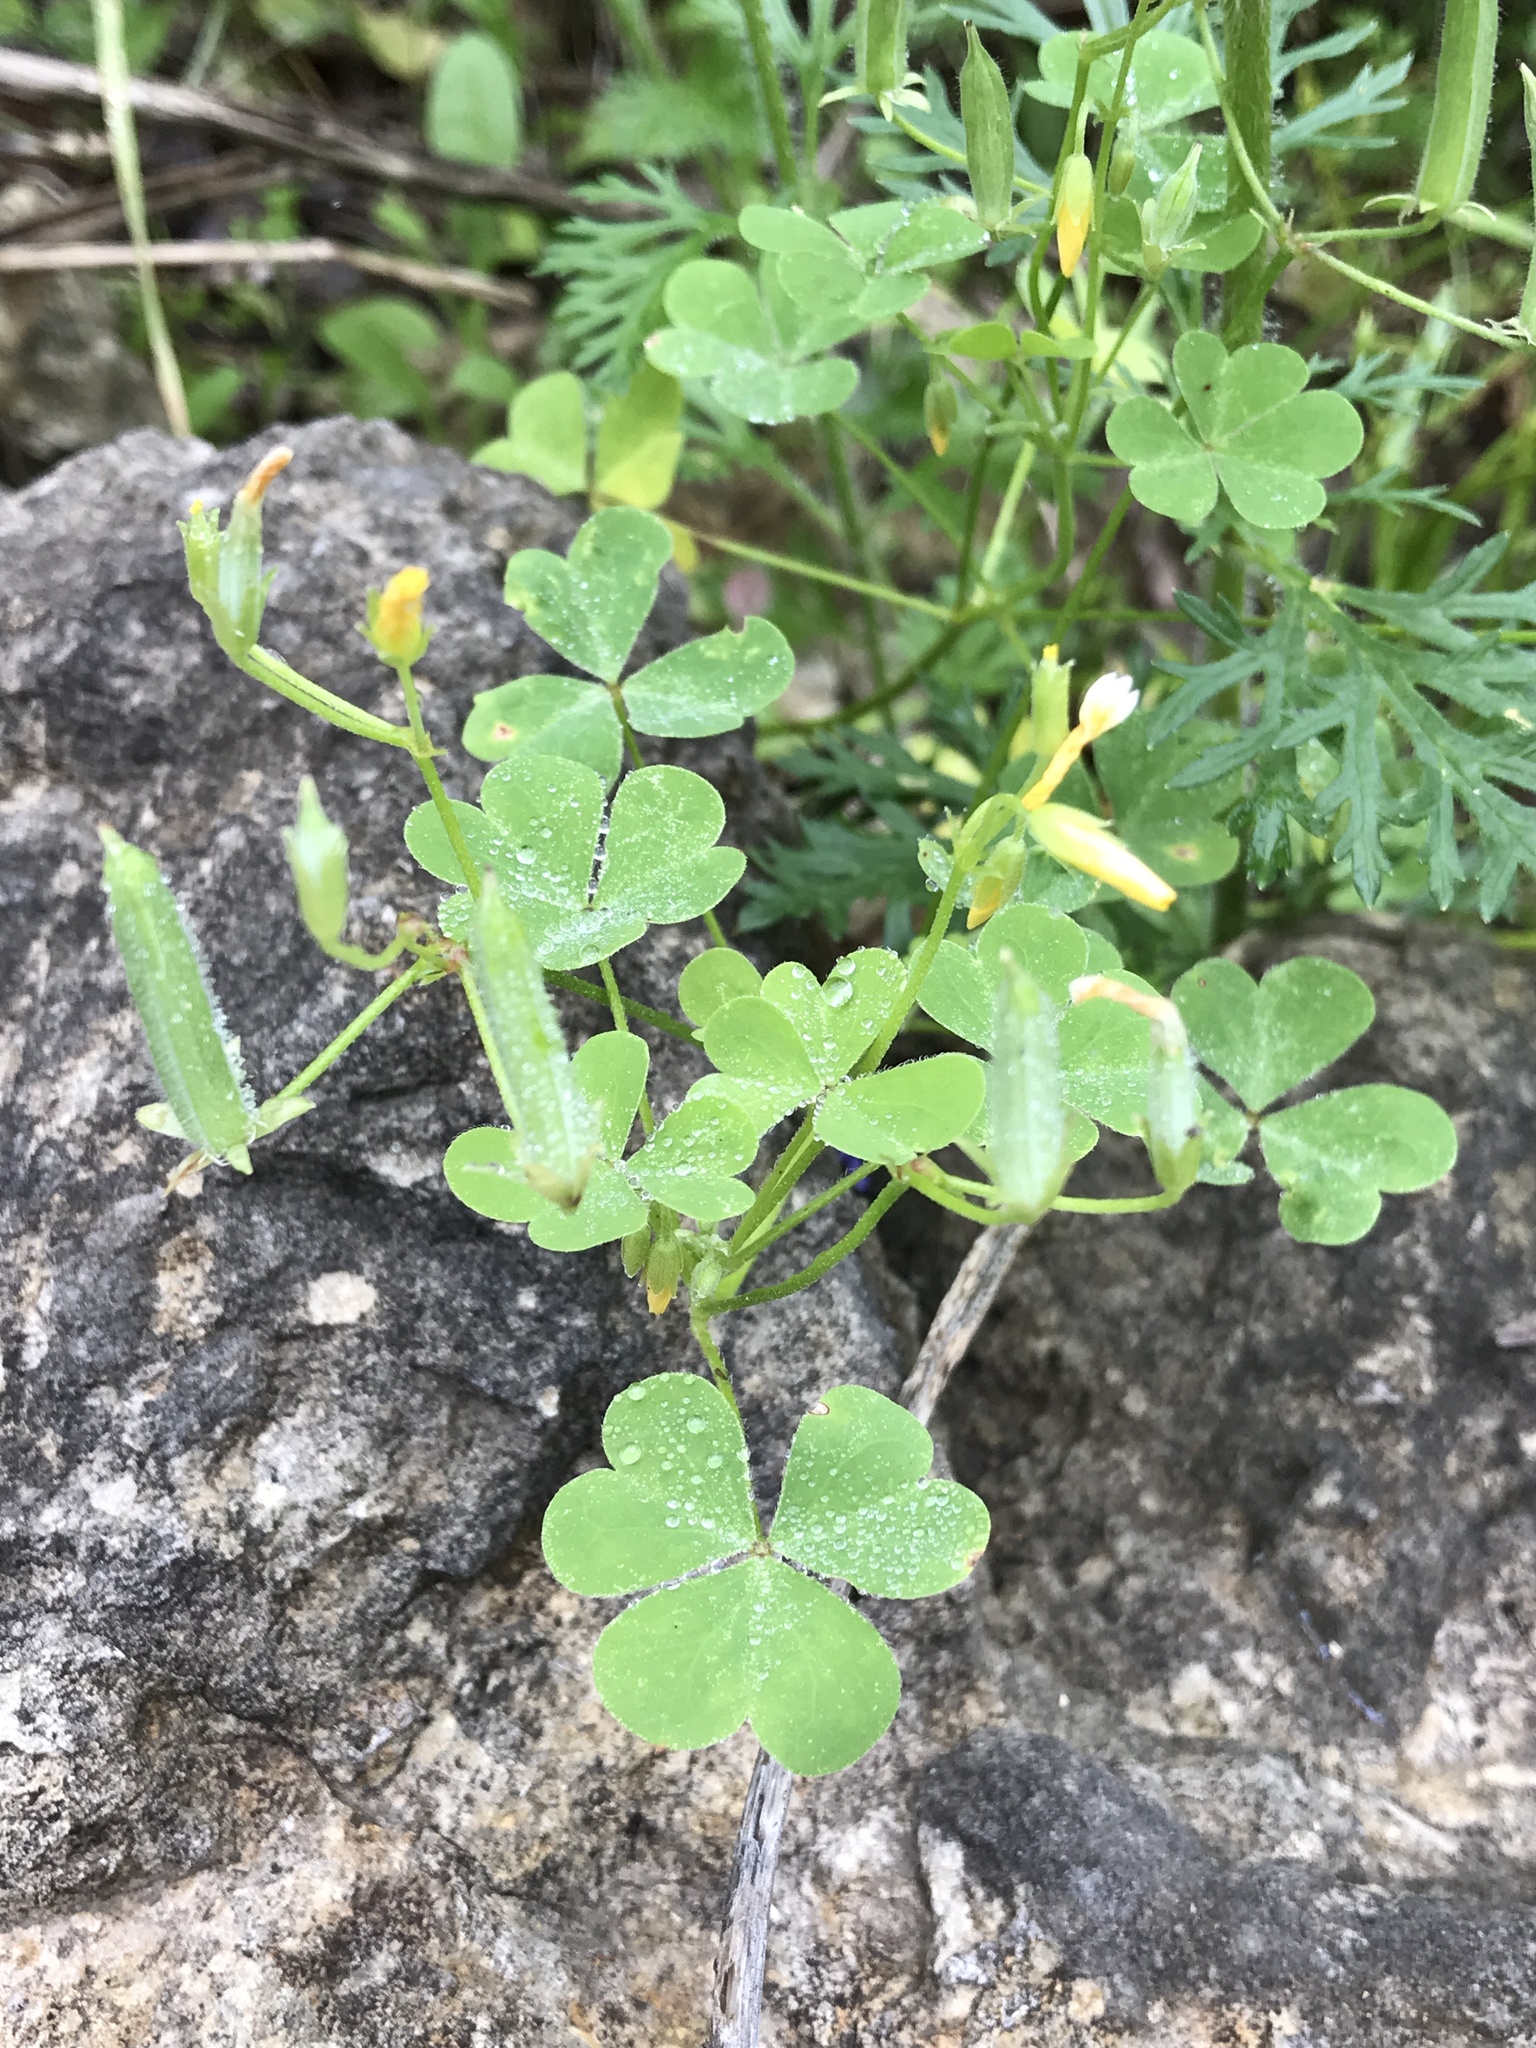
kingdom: Plantae
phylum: Tracheophyta
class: Magnoliopsida
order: Oxalidales
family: Oxalidaceae
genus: Oxalis
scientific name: Oxalis dillenii
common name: Sussex yellow-sorrel
